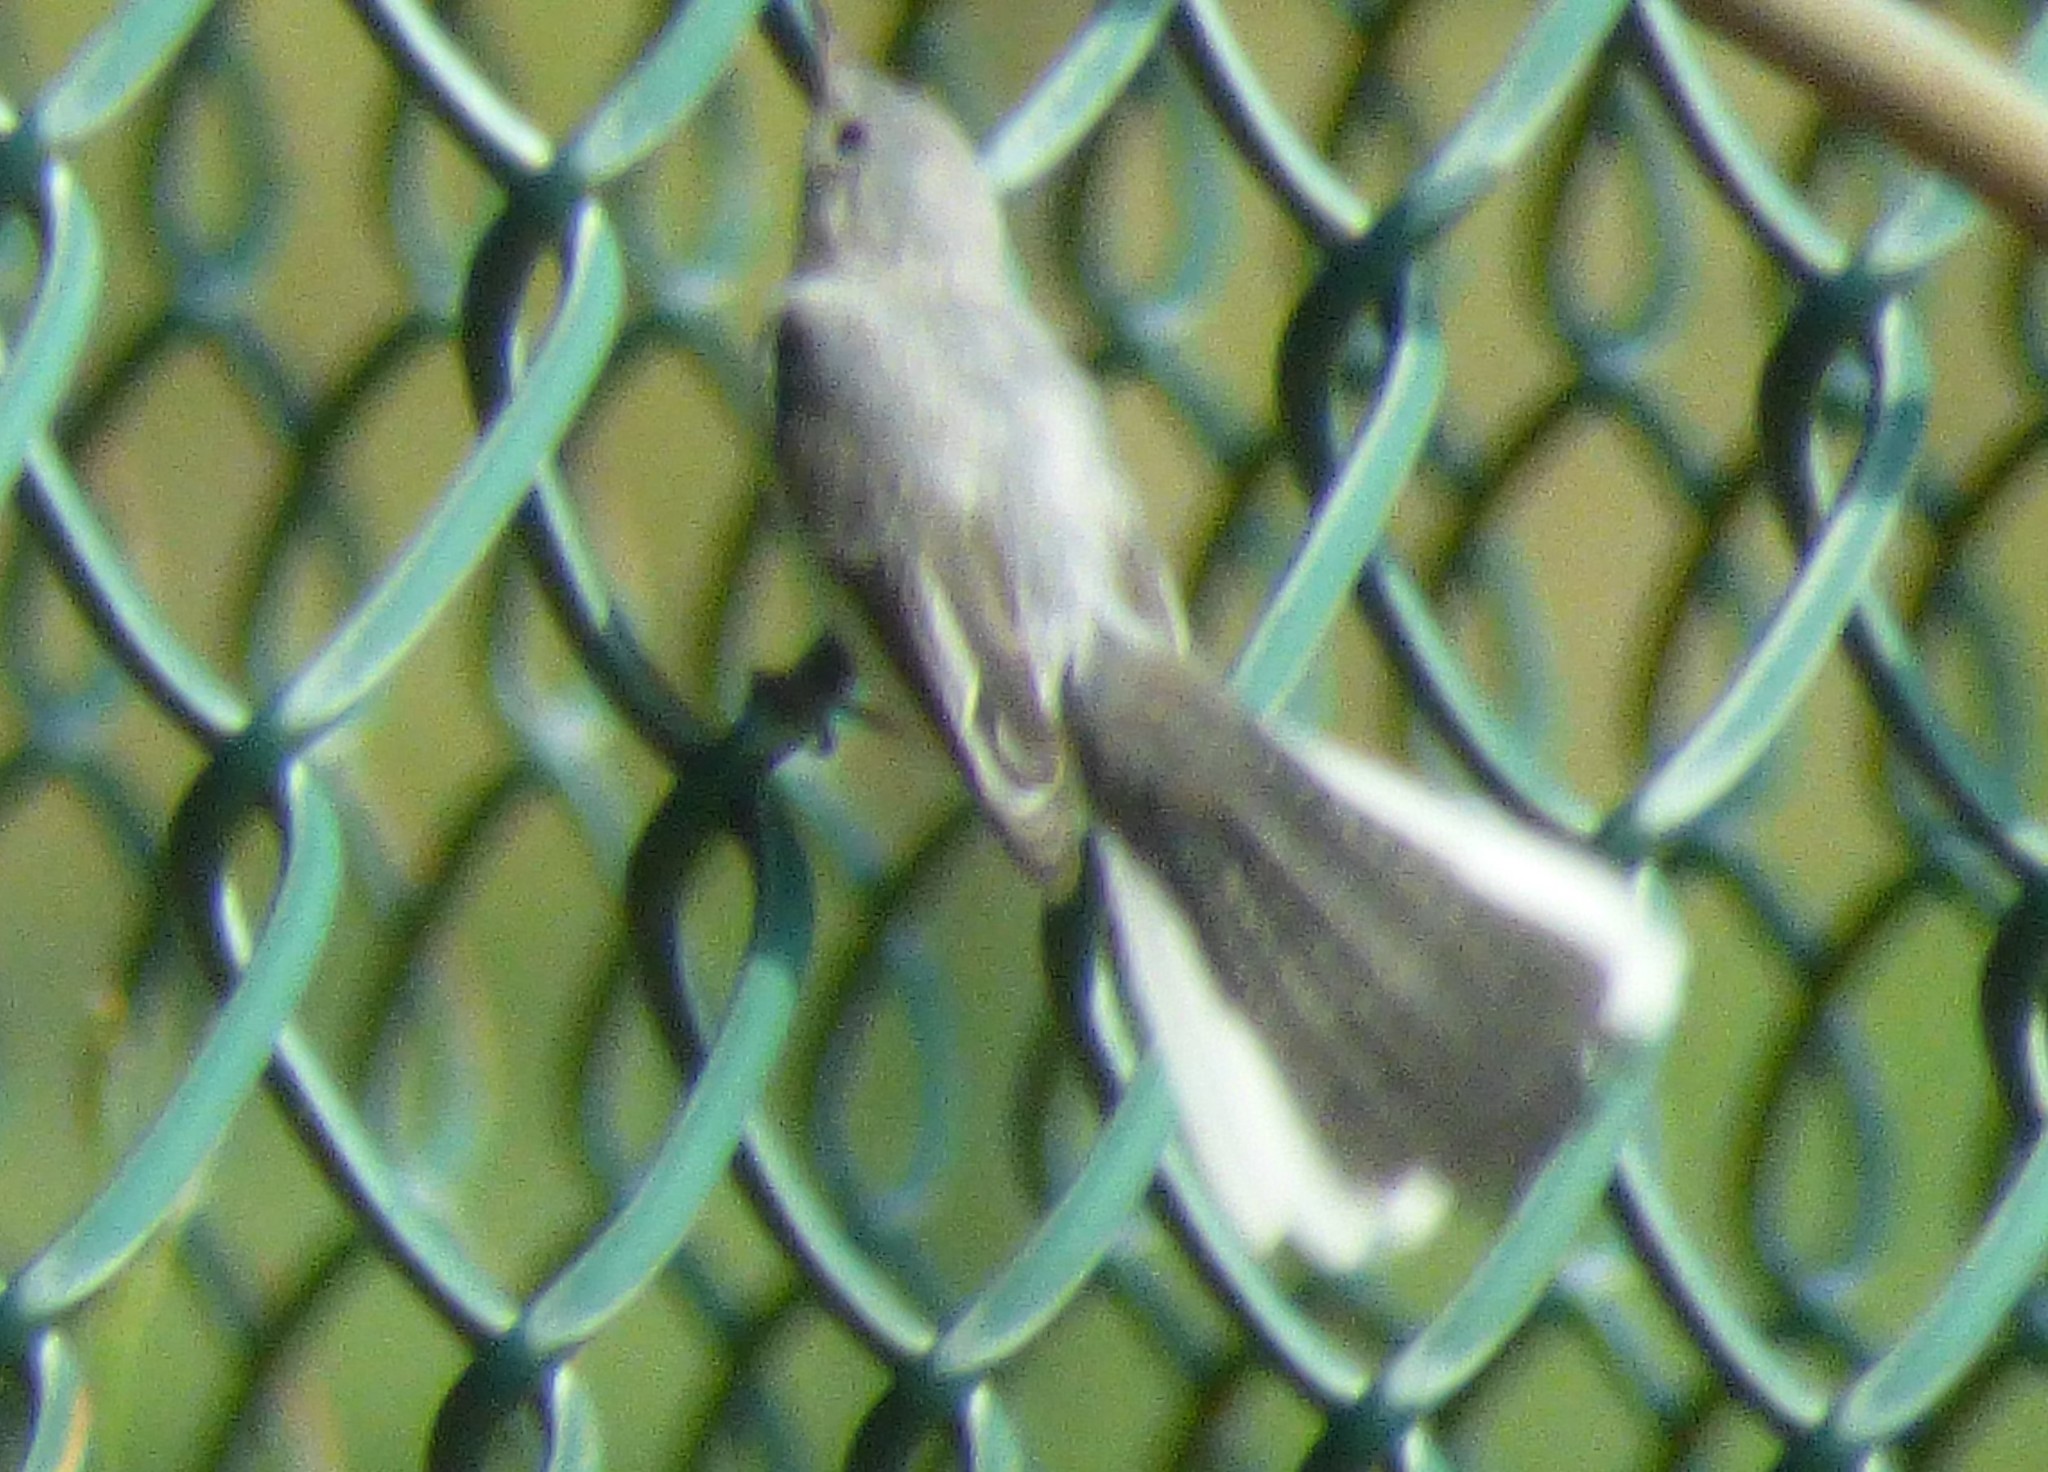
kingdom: Animalia
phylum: Chordata
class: Aves
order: Passeriformes
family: Polioptilidae
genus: Polioptila
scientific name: Polioptila caerulea
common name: Blue-gray gnatcatcher
